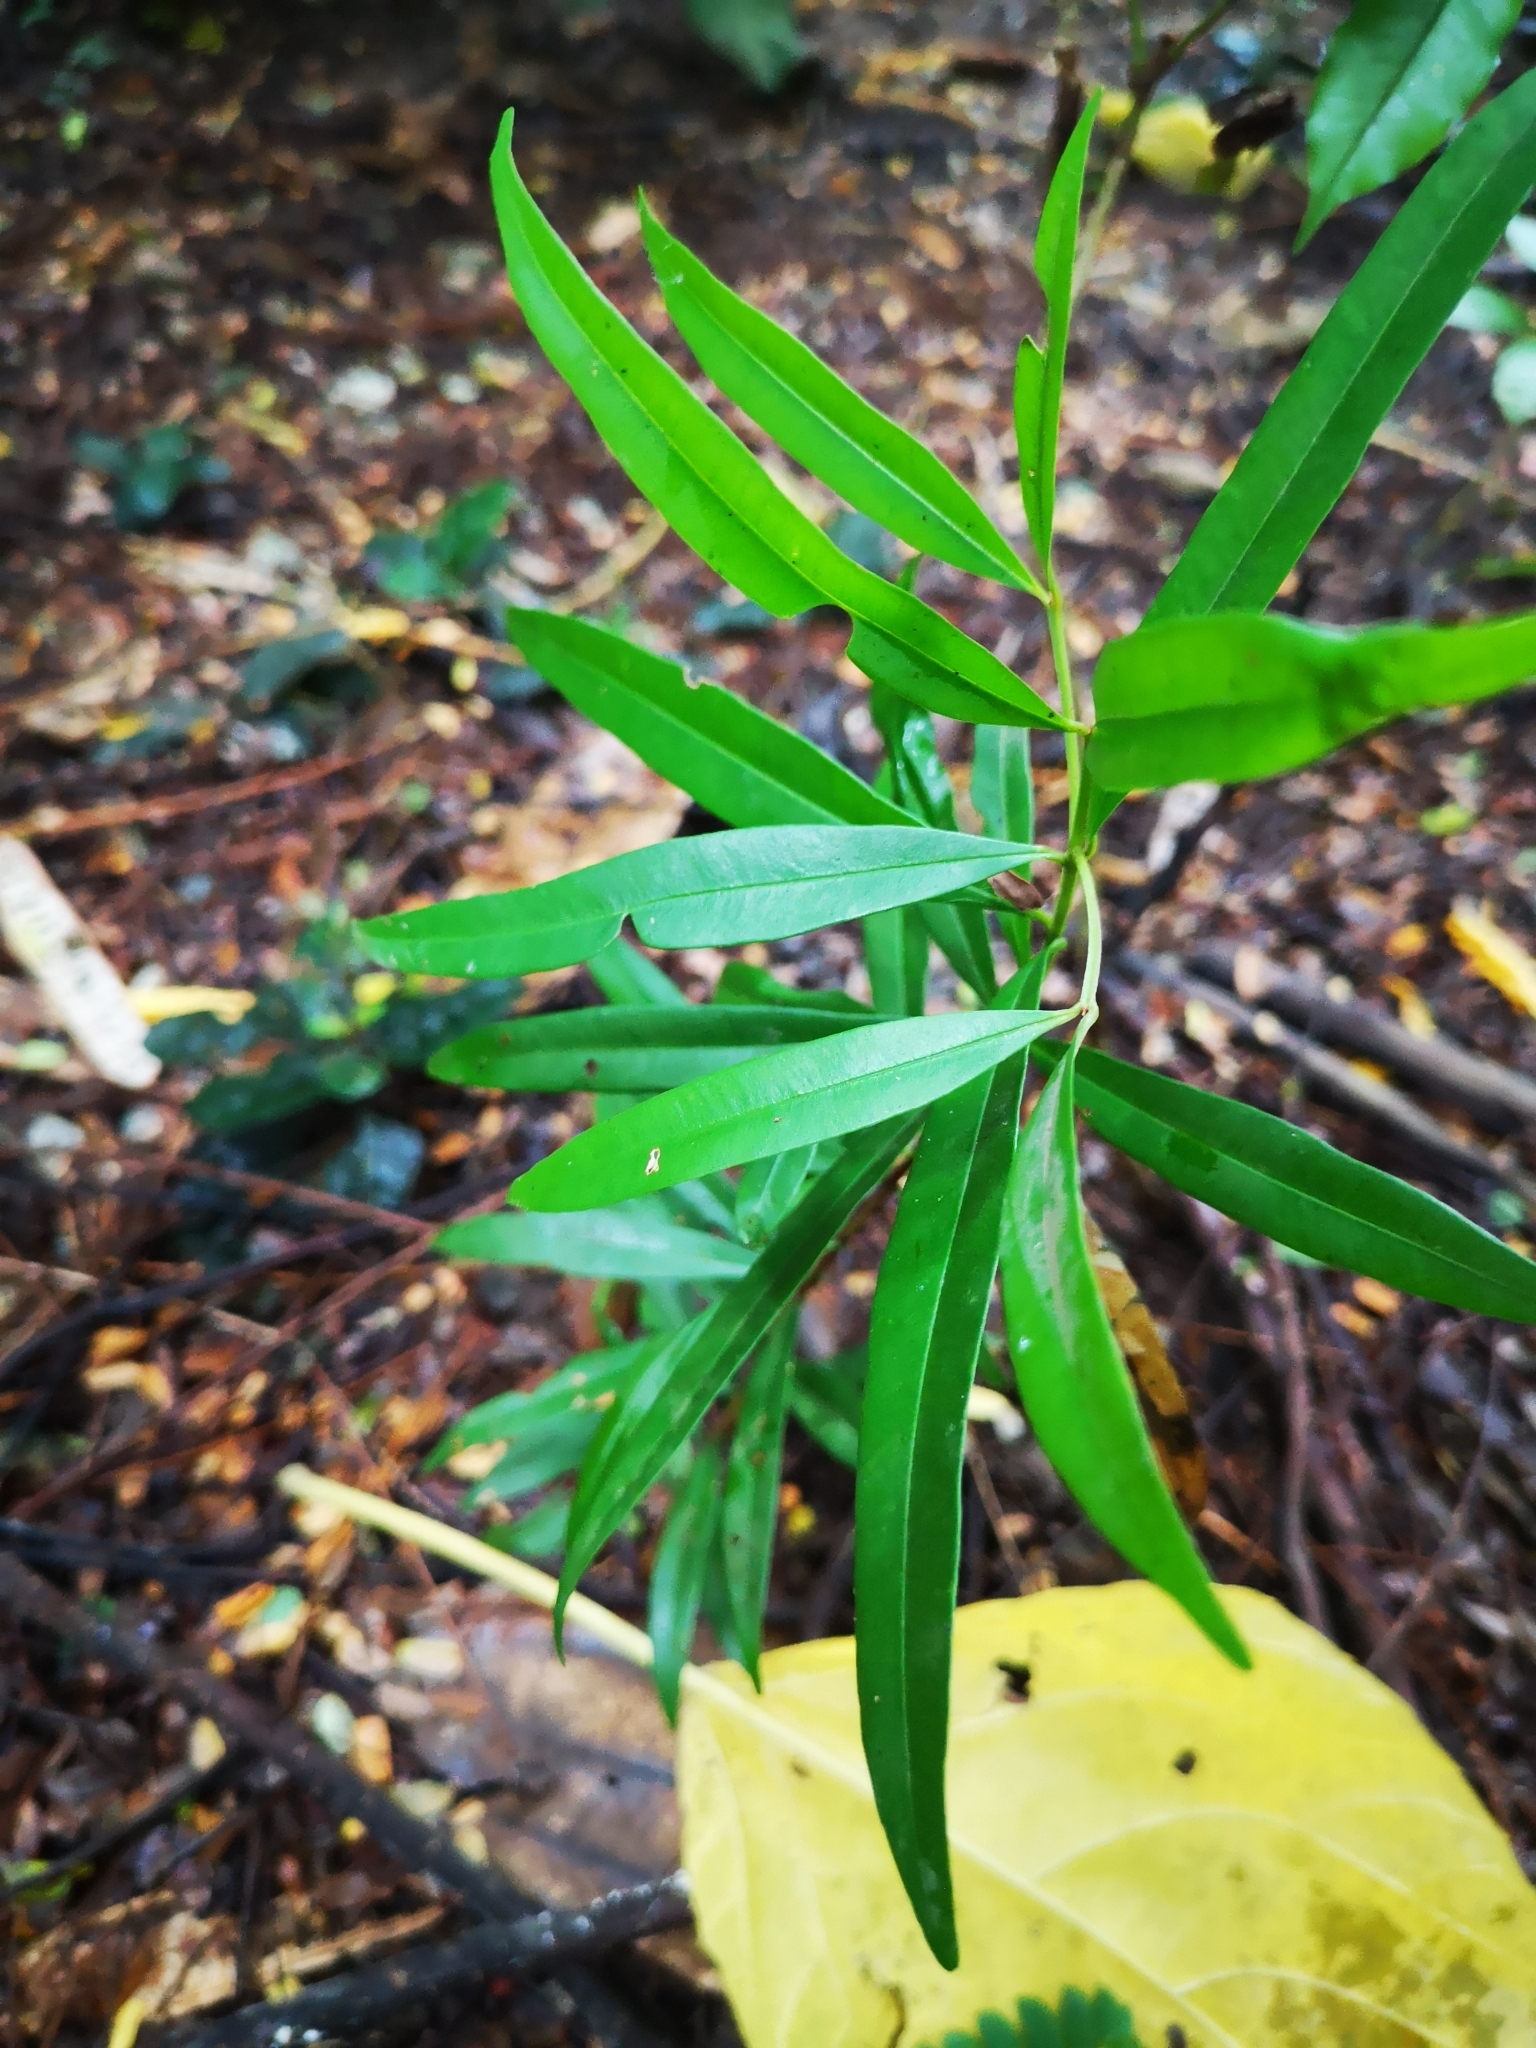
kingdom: Plantae
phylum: Tracheophyta
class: Magnoliopsida
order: Myrtales
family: Myrtaceae
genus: Syzygium
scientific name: Syzygium myrtifolium
